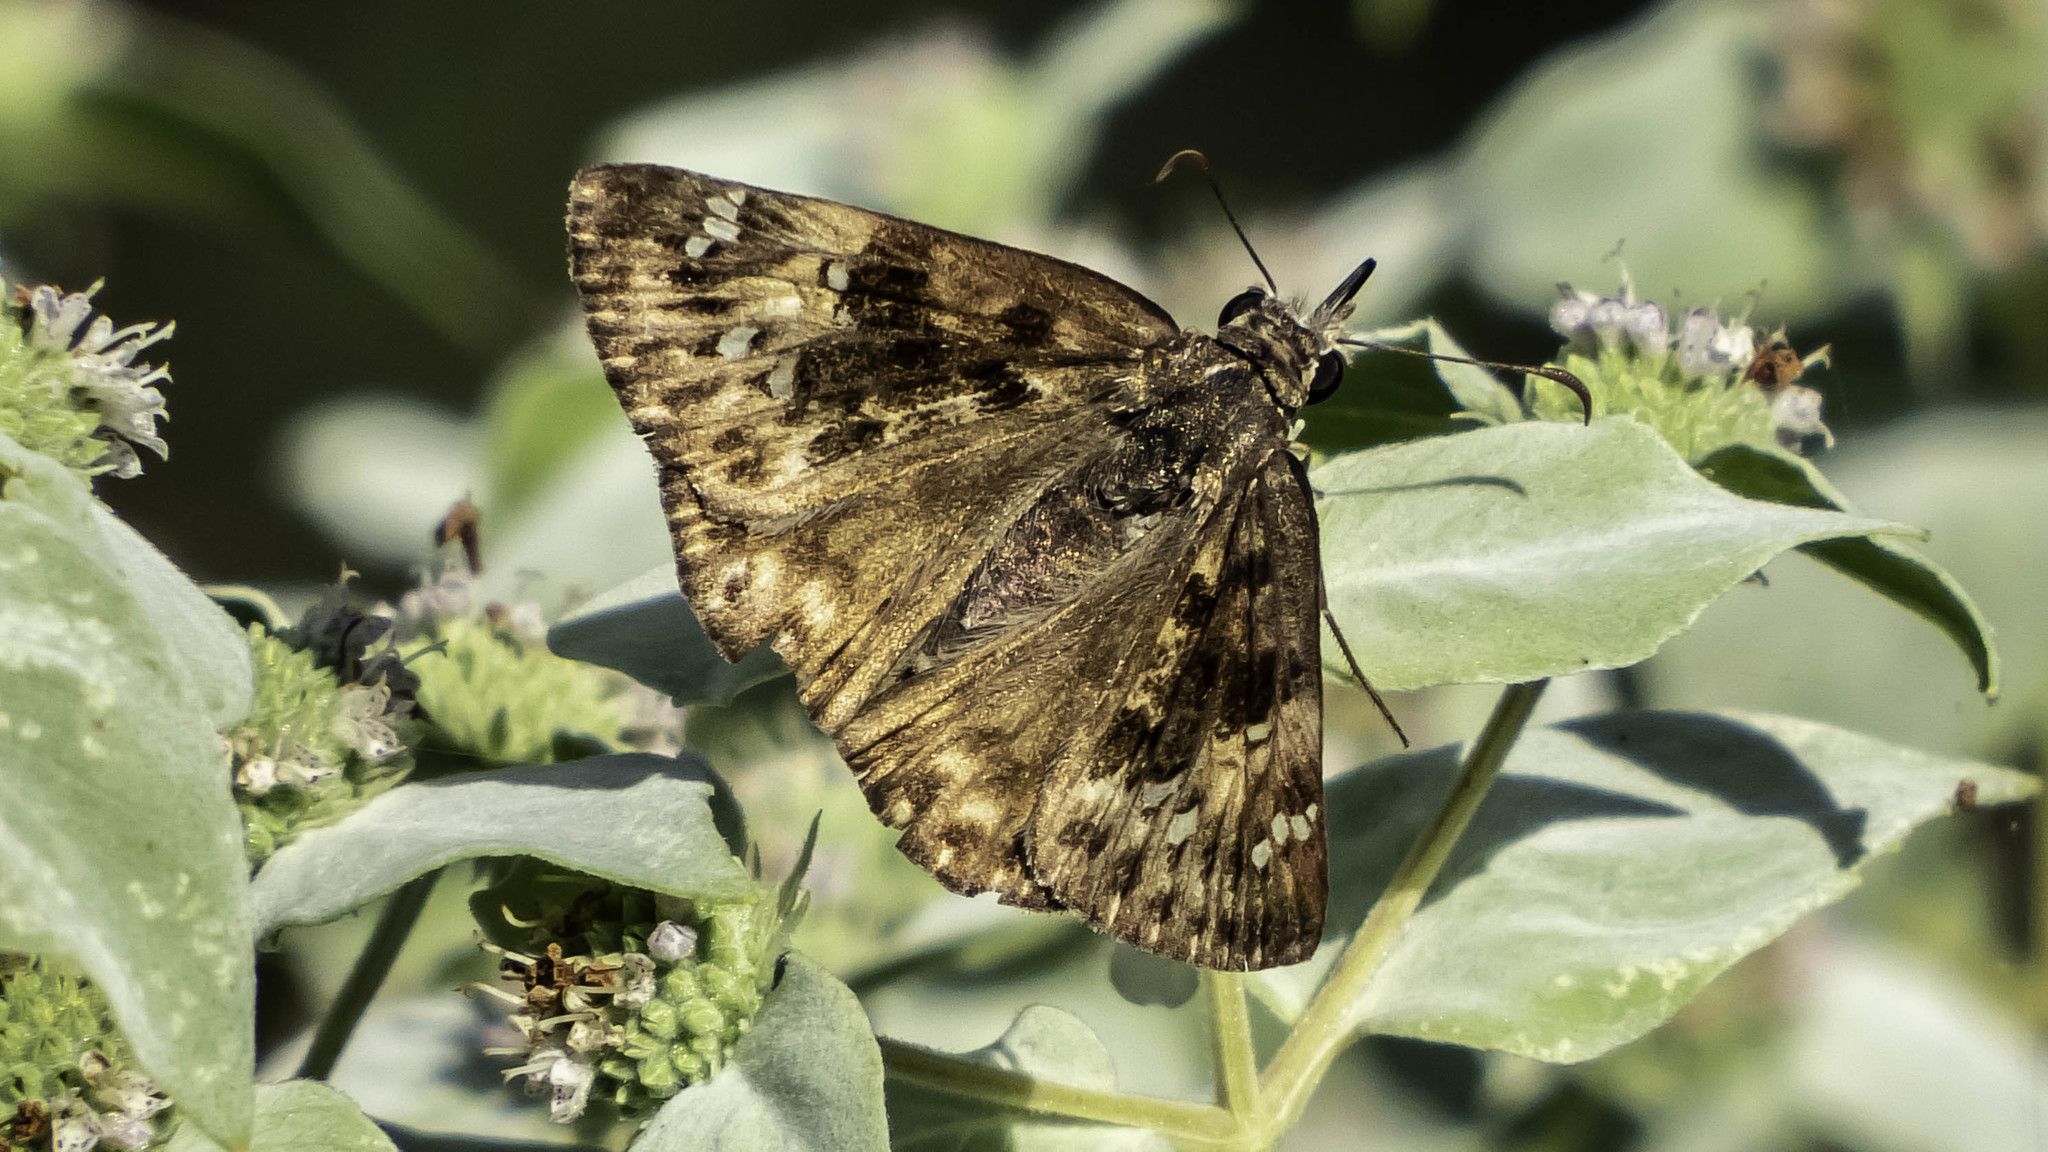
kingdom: Animalia
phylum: Arthropoda
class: Insecta
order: Lepidoptera
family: Hesperiidae
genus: Erynnis
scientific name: Erynnis horatius
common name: Horace's duskywing
